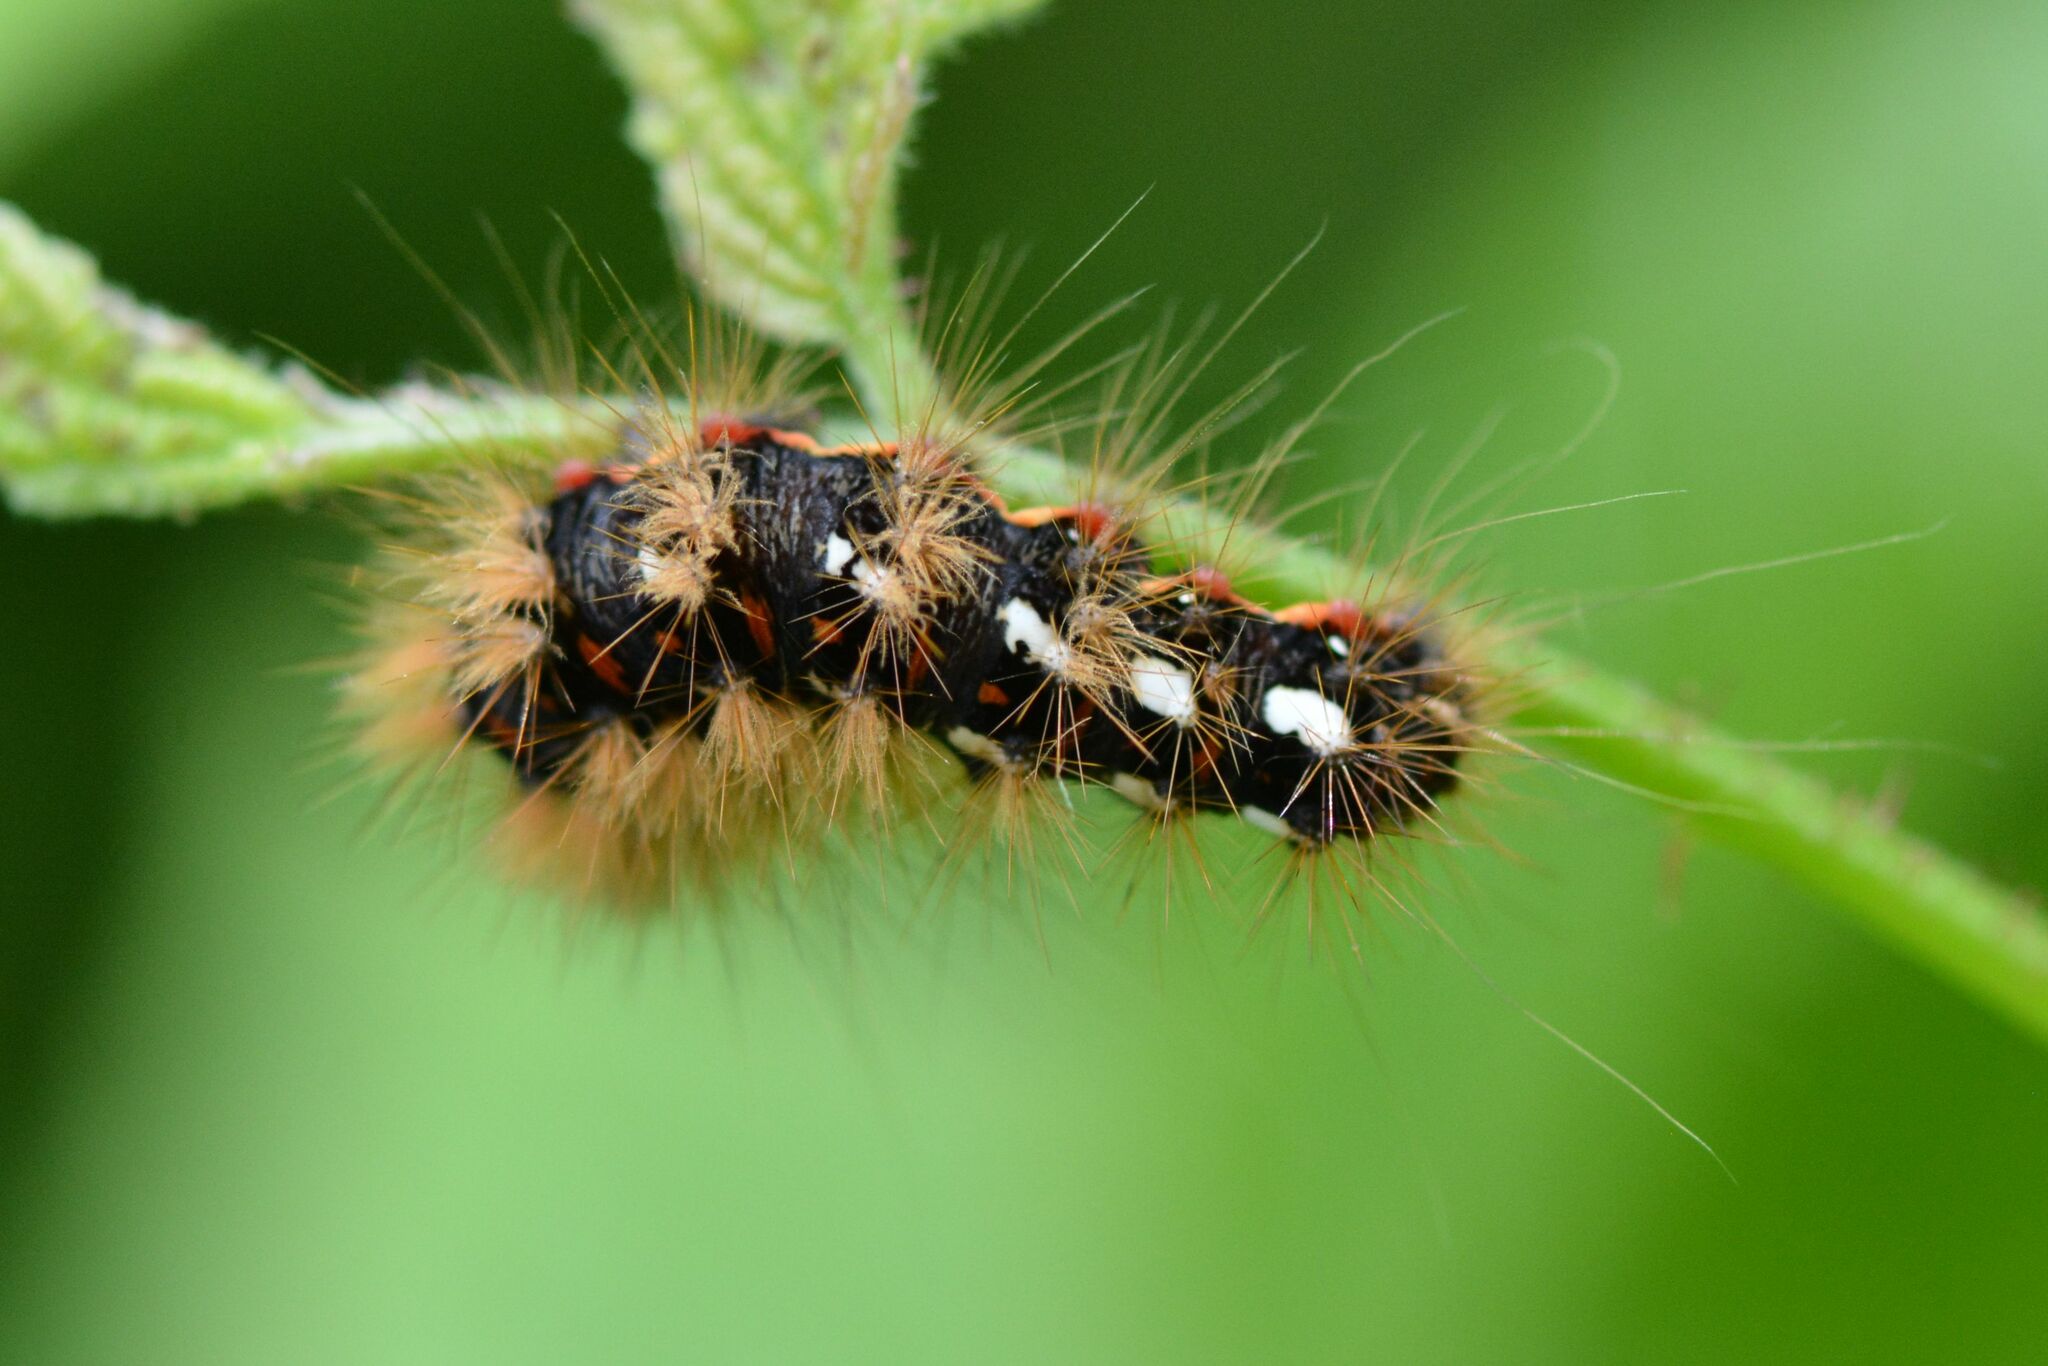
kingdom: Animalia
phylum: Arthropoda
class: Insecta
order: Lepidoptera
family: Noctuidae
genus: Acronicta
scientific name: Acronicta rumicis
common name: Knot grass
